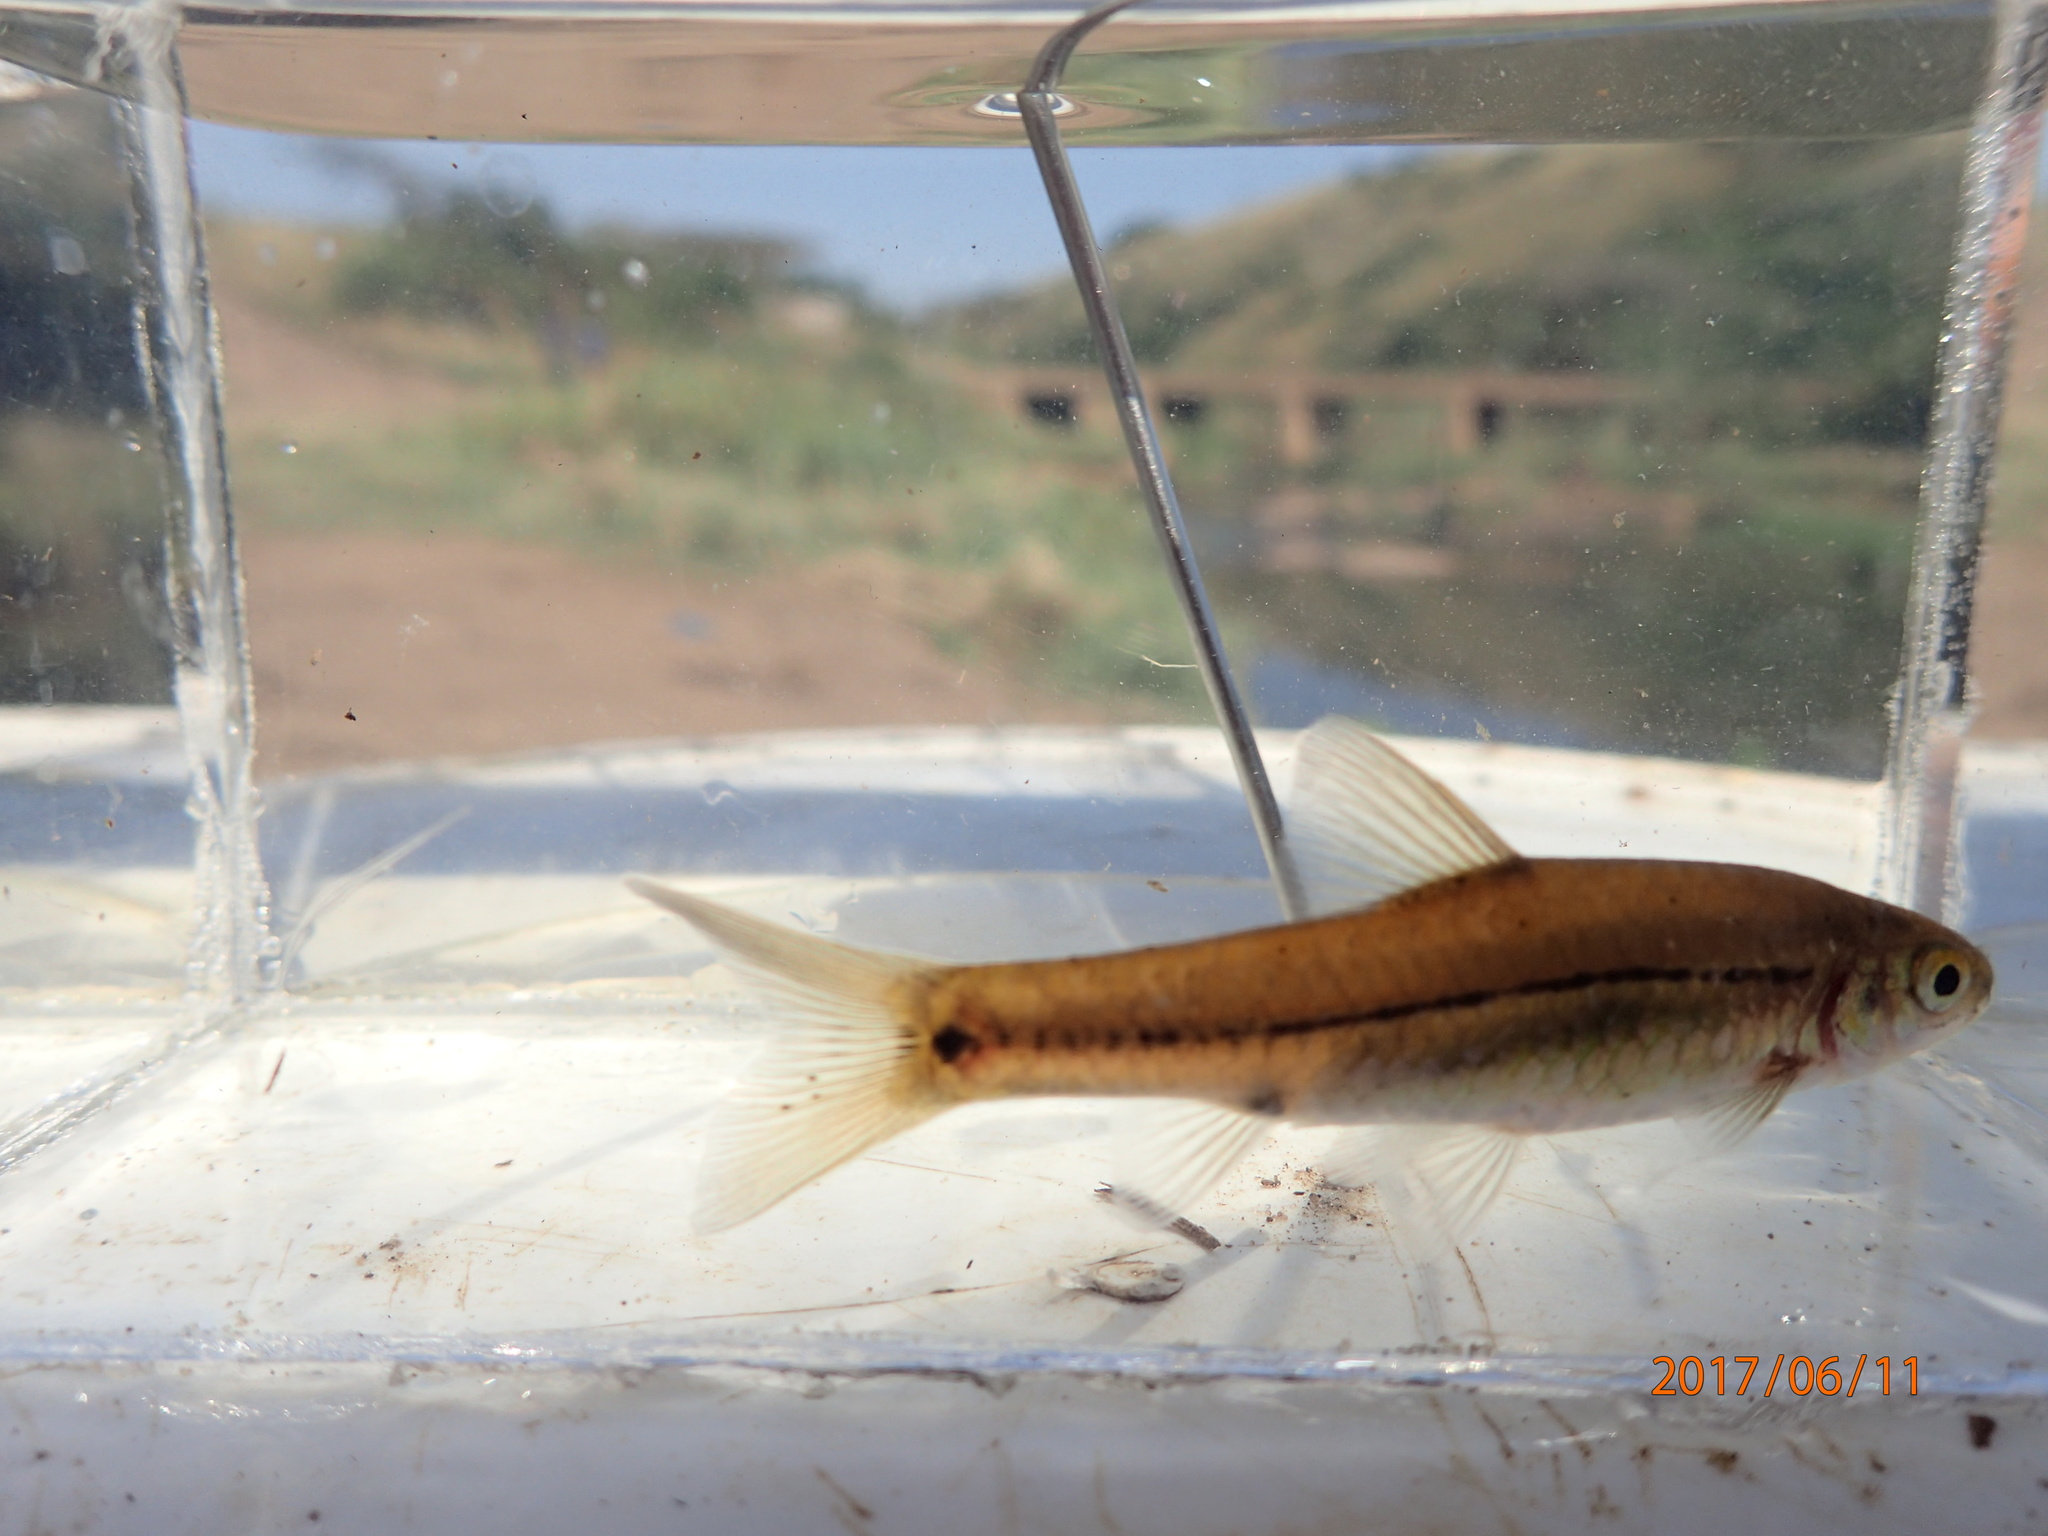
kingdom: Animalia
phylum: Chordata
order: Cypriniformes
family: Cyprinidae
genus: Enteromius
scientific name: Enteromius viviparus
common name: Bowstripe barb
